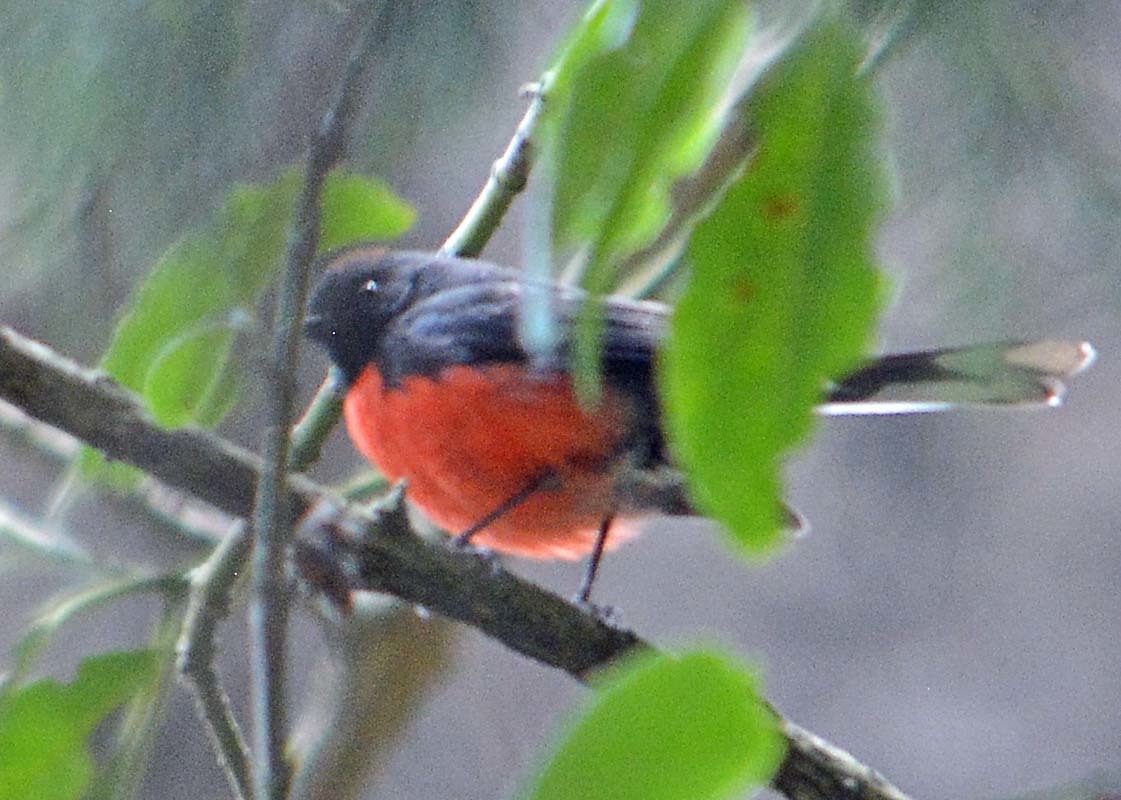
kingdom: Animalia
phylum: Chordata
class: Aves
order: Passeriformes
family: Parulidae
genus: Myioborus
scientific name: Myioborus miniatus
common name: Slate-throated redstart
